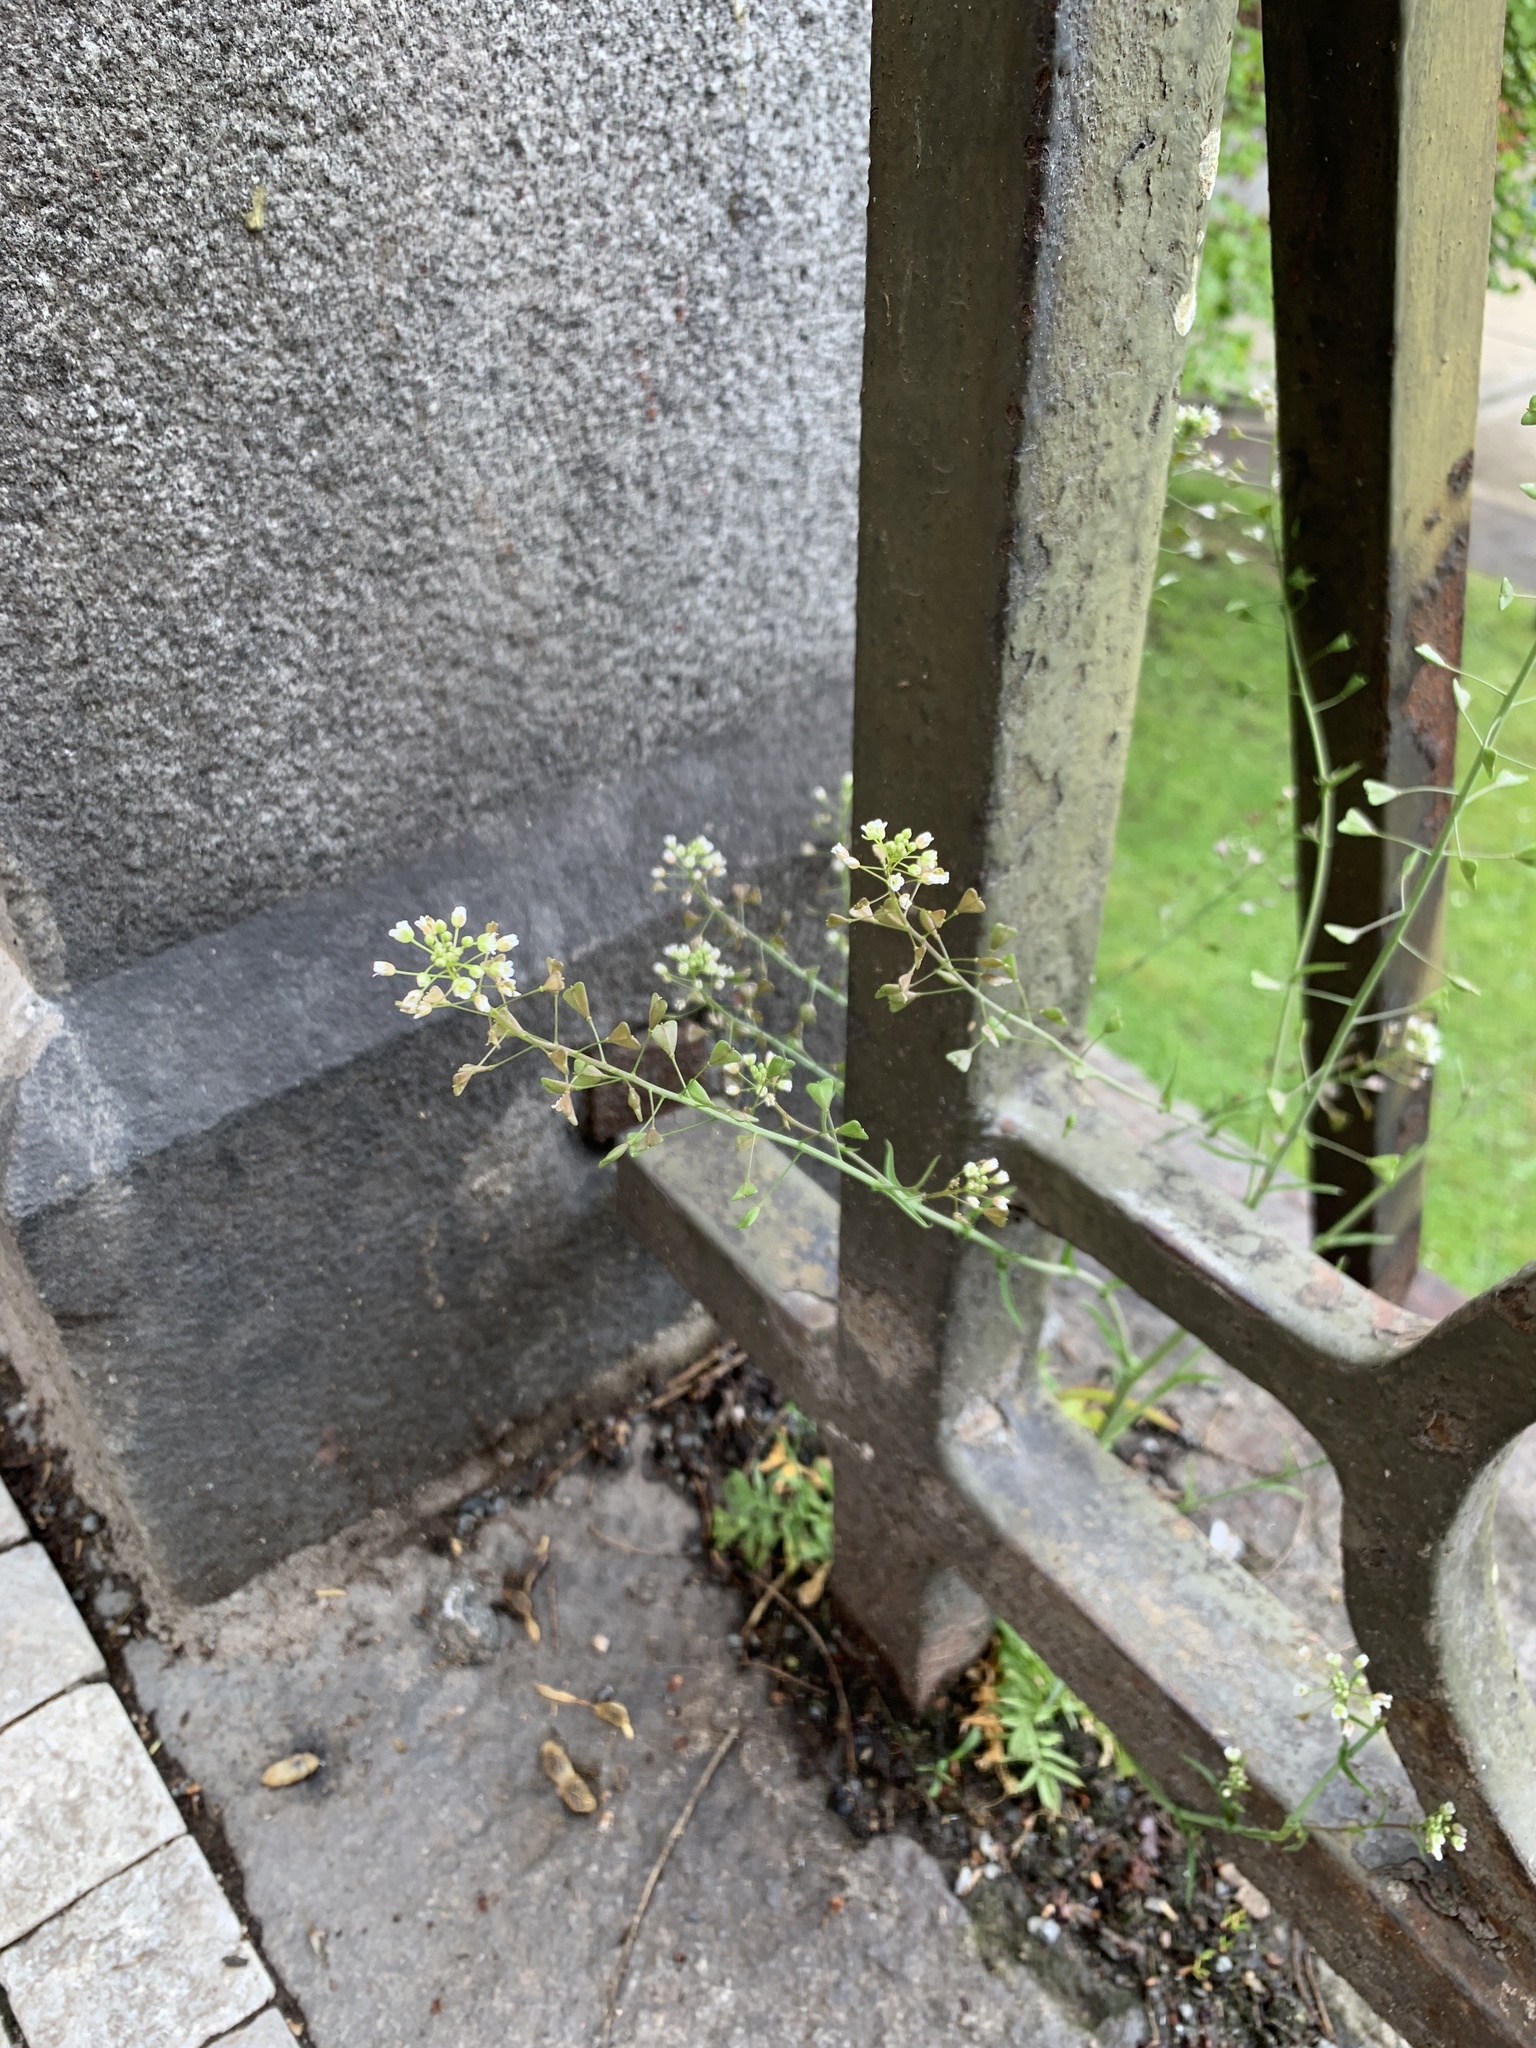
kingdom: Plantae
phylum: Tracheophyta
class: Magnoliopsida
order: Brassicales
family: Brassicaceae
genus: Capsella
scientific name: Capsella bursa-pastoris
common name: Shepherd's purse
